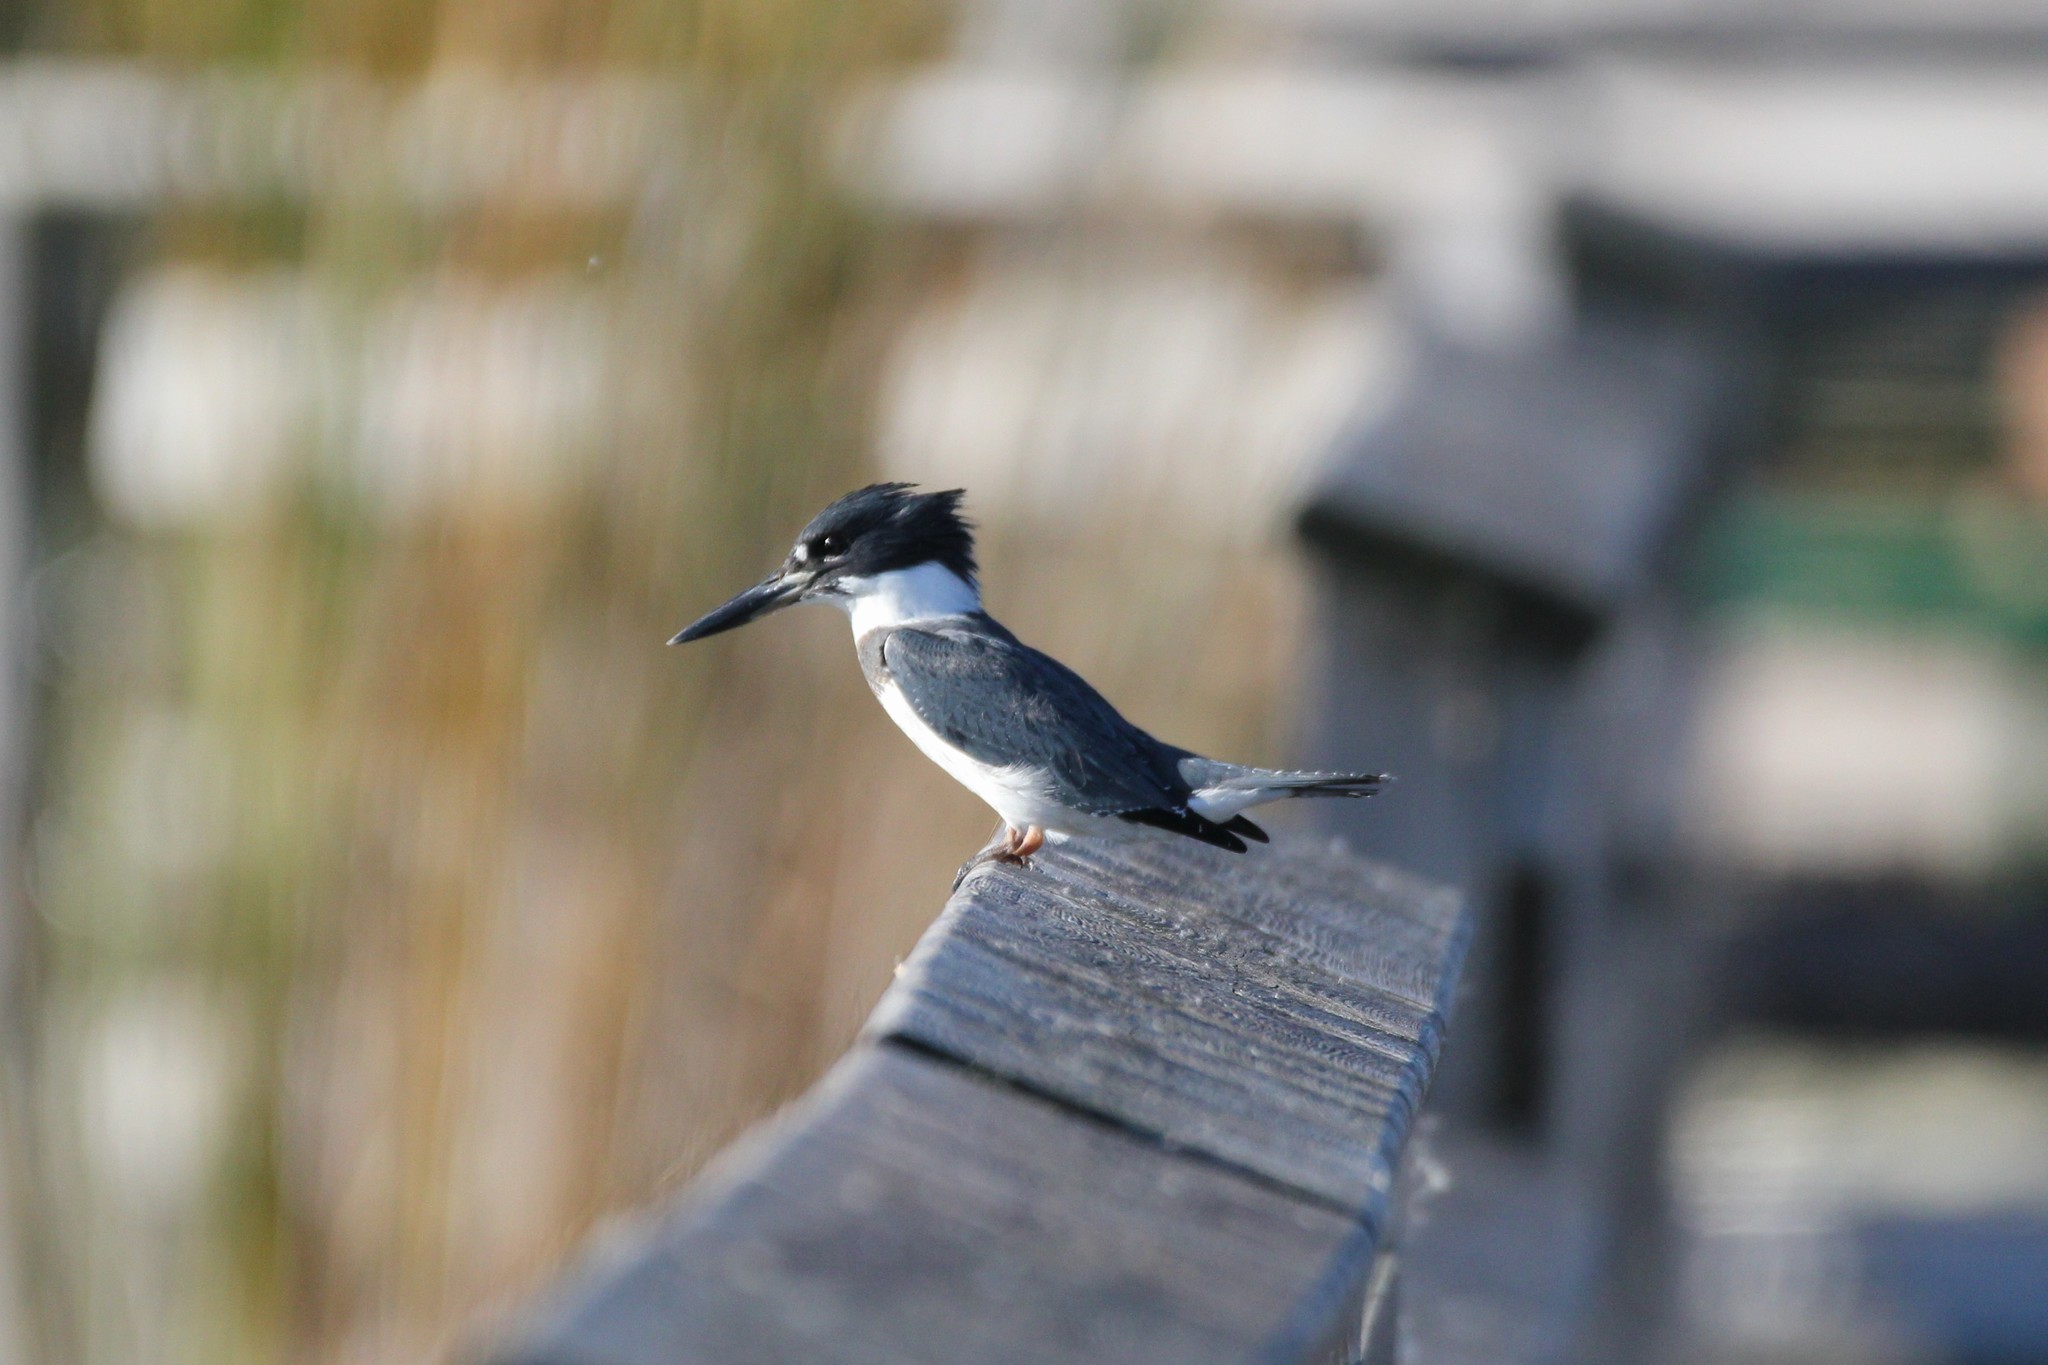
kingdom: Animalia
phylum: Chordata
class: Aves
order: Coraciiformes
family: Alcedinidae
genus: Megaceryle
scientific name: Megaceryle alcyon
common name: Belted kingfisher
